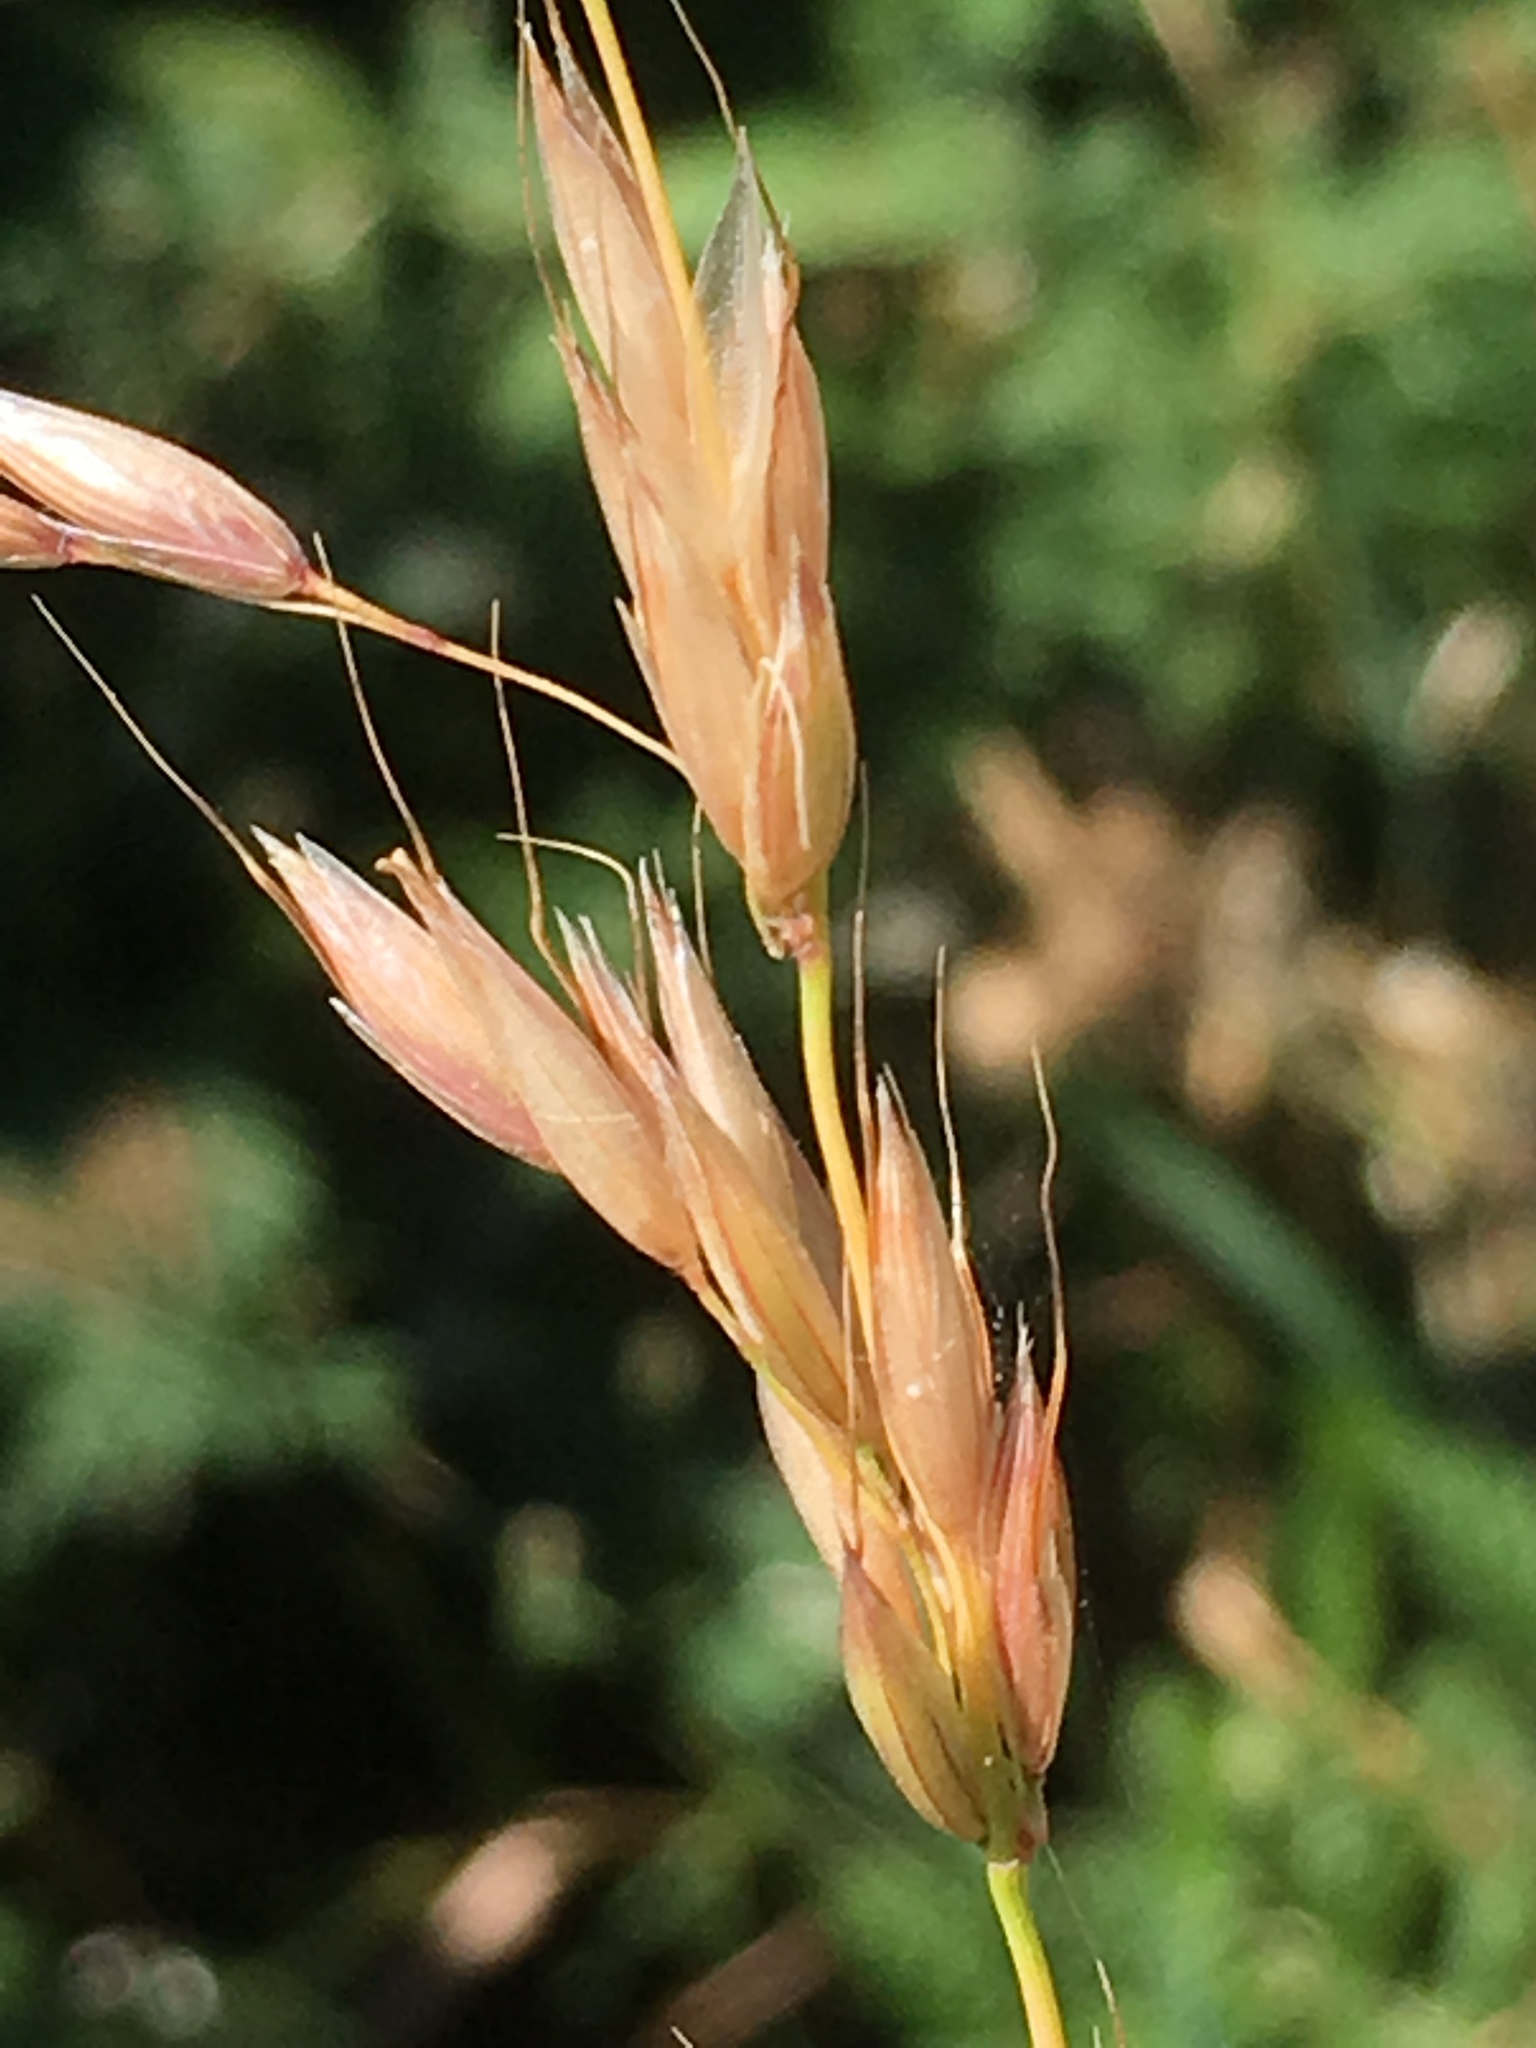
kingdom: Plantae
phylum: Tracheophyta
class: Liliopsida
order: Poales
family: Poaceae
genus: Arrhenatherum
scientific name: Arrhenatherum elatius
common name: Tall oatgrass
